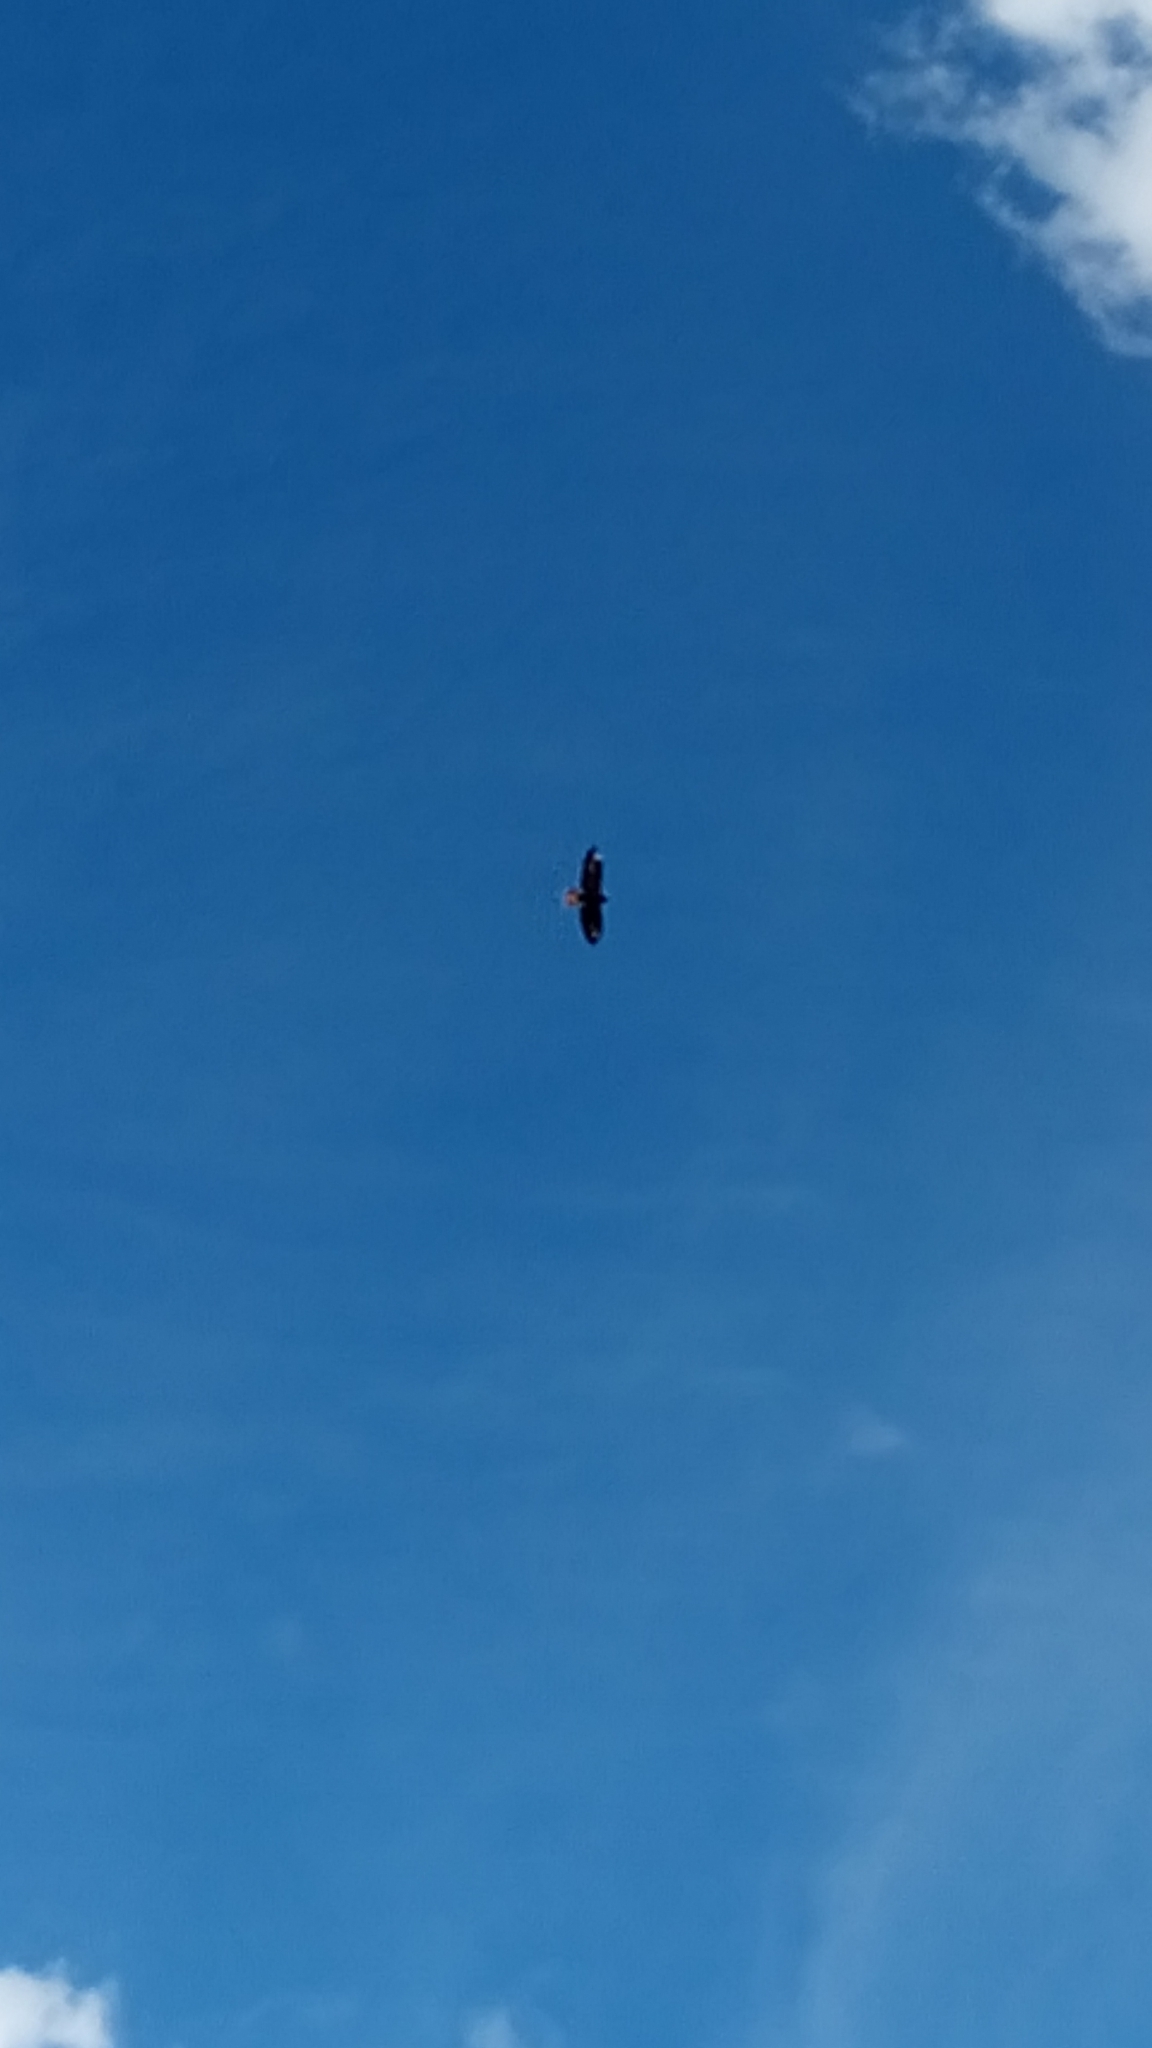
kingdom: Animalia
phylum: Chordata
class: Aves
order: Accipitriformes
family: Accipitridae
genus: Buteo
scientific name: Buteo buteo
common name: Common buzzard
